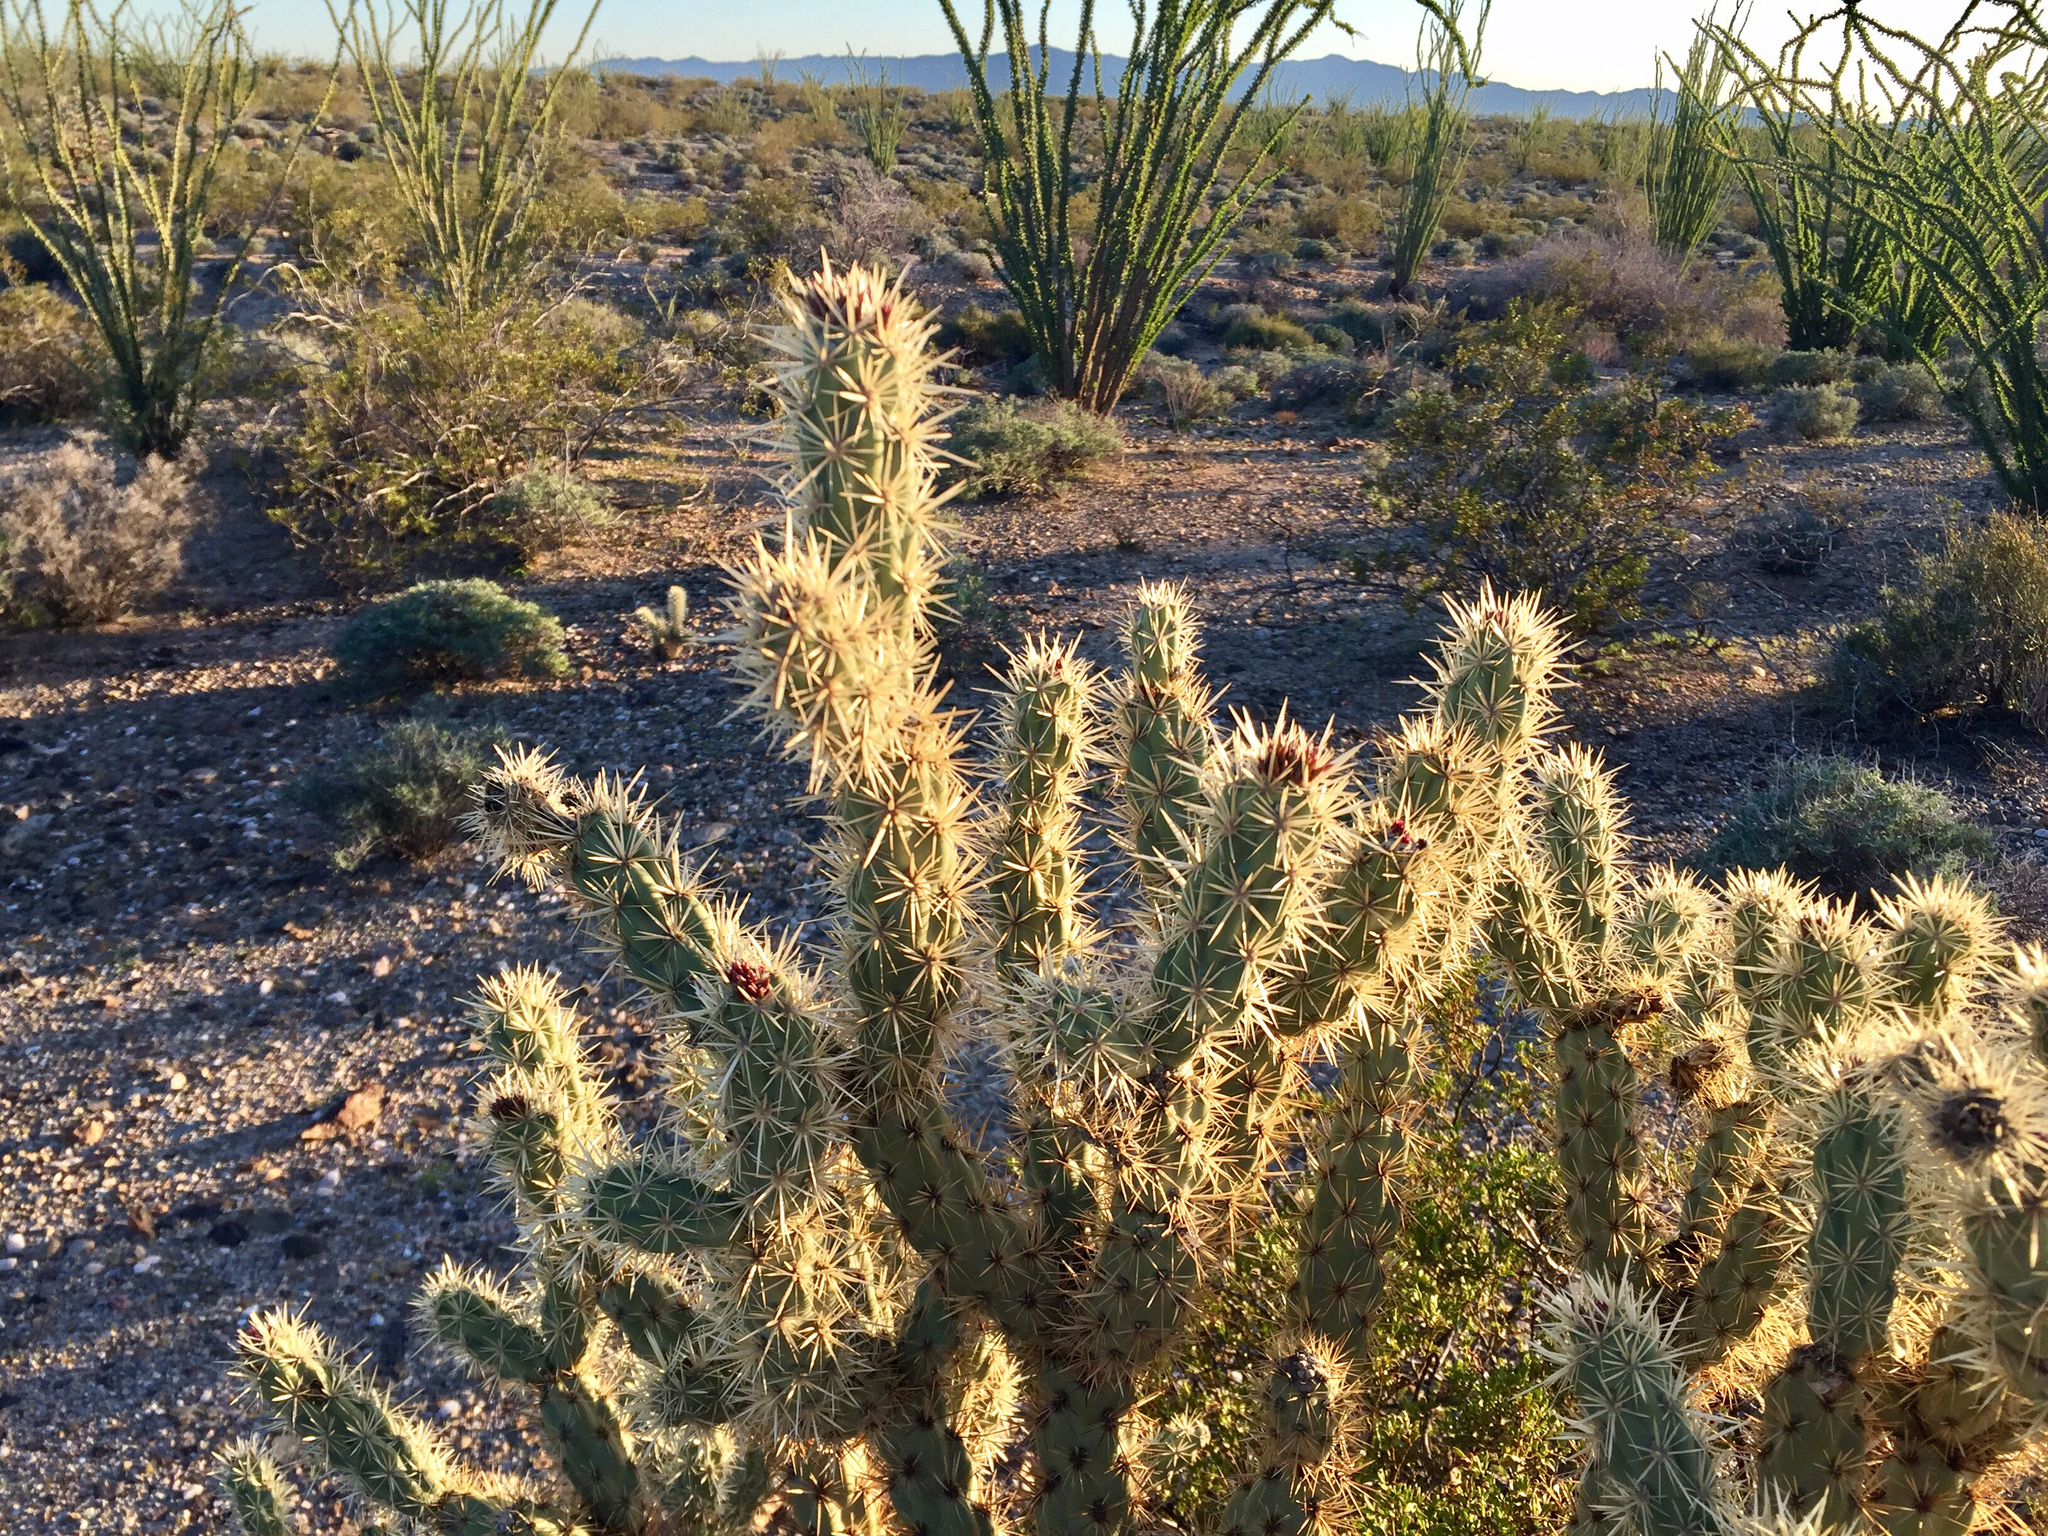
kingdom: Plantae
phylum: Tracheophyta
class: Magnoliopsida
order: Caryophyllales
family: Cactaceae
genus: Cylindropuntia
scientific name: Cylindropuntia acanthocarpa
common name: Buckhorn cholla
